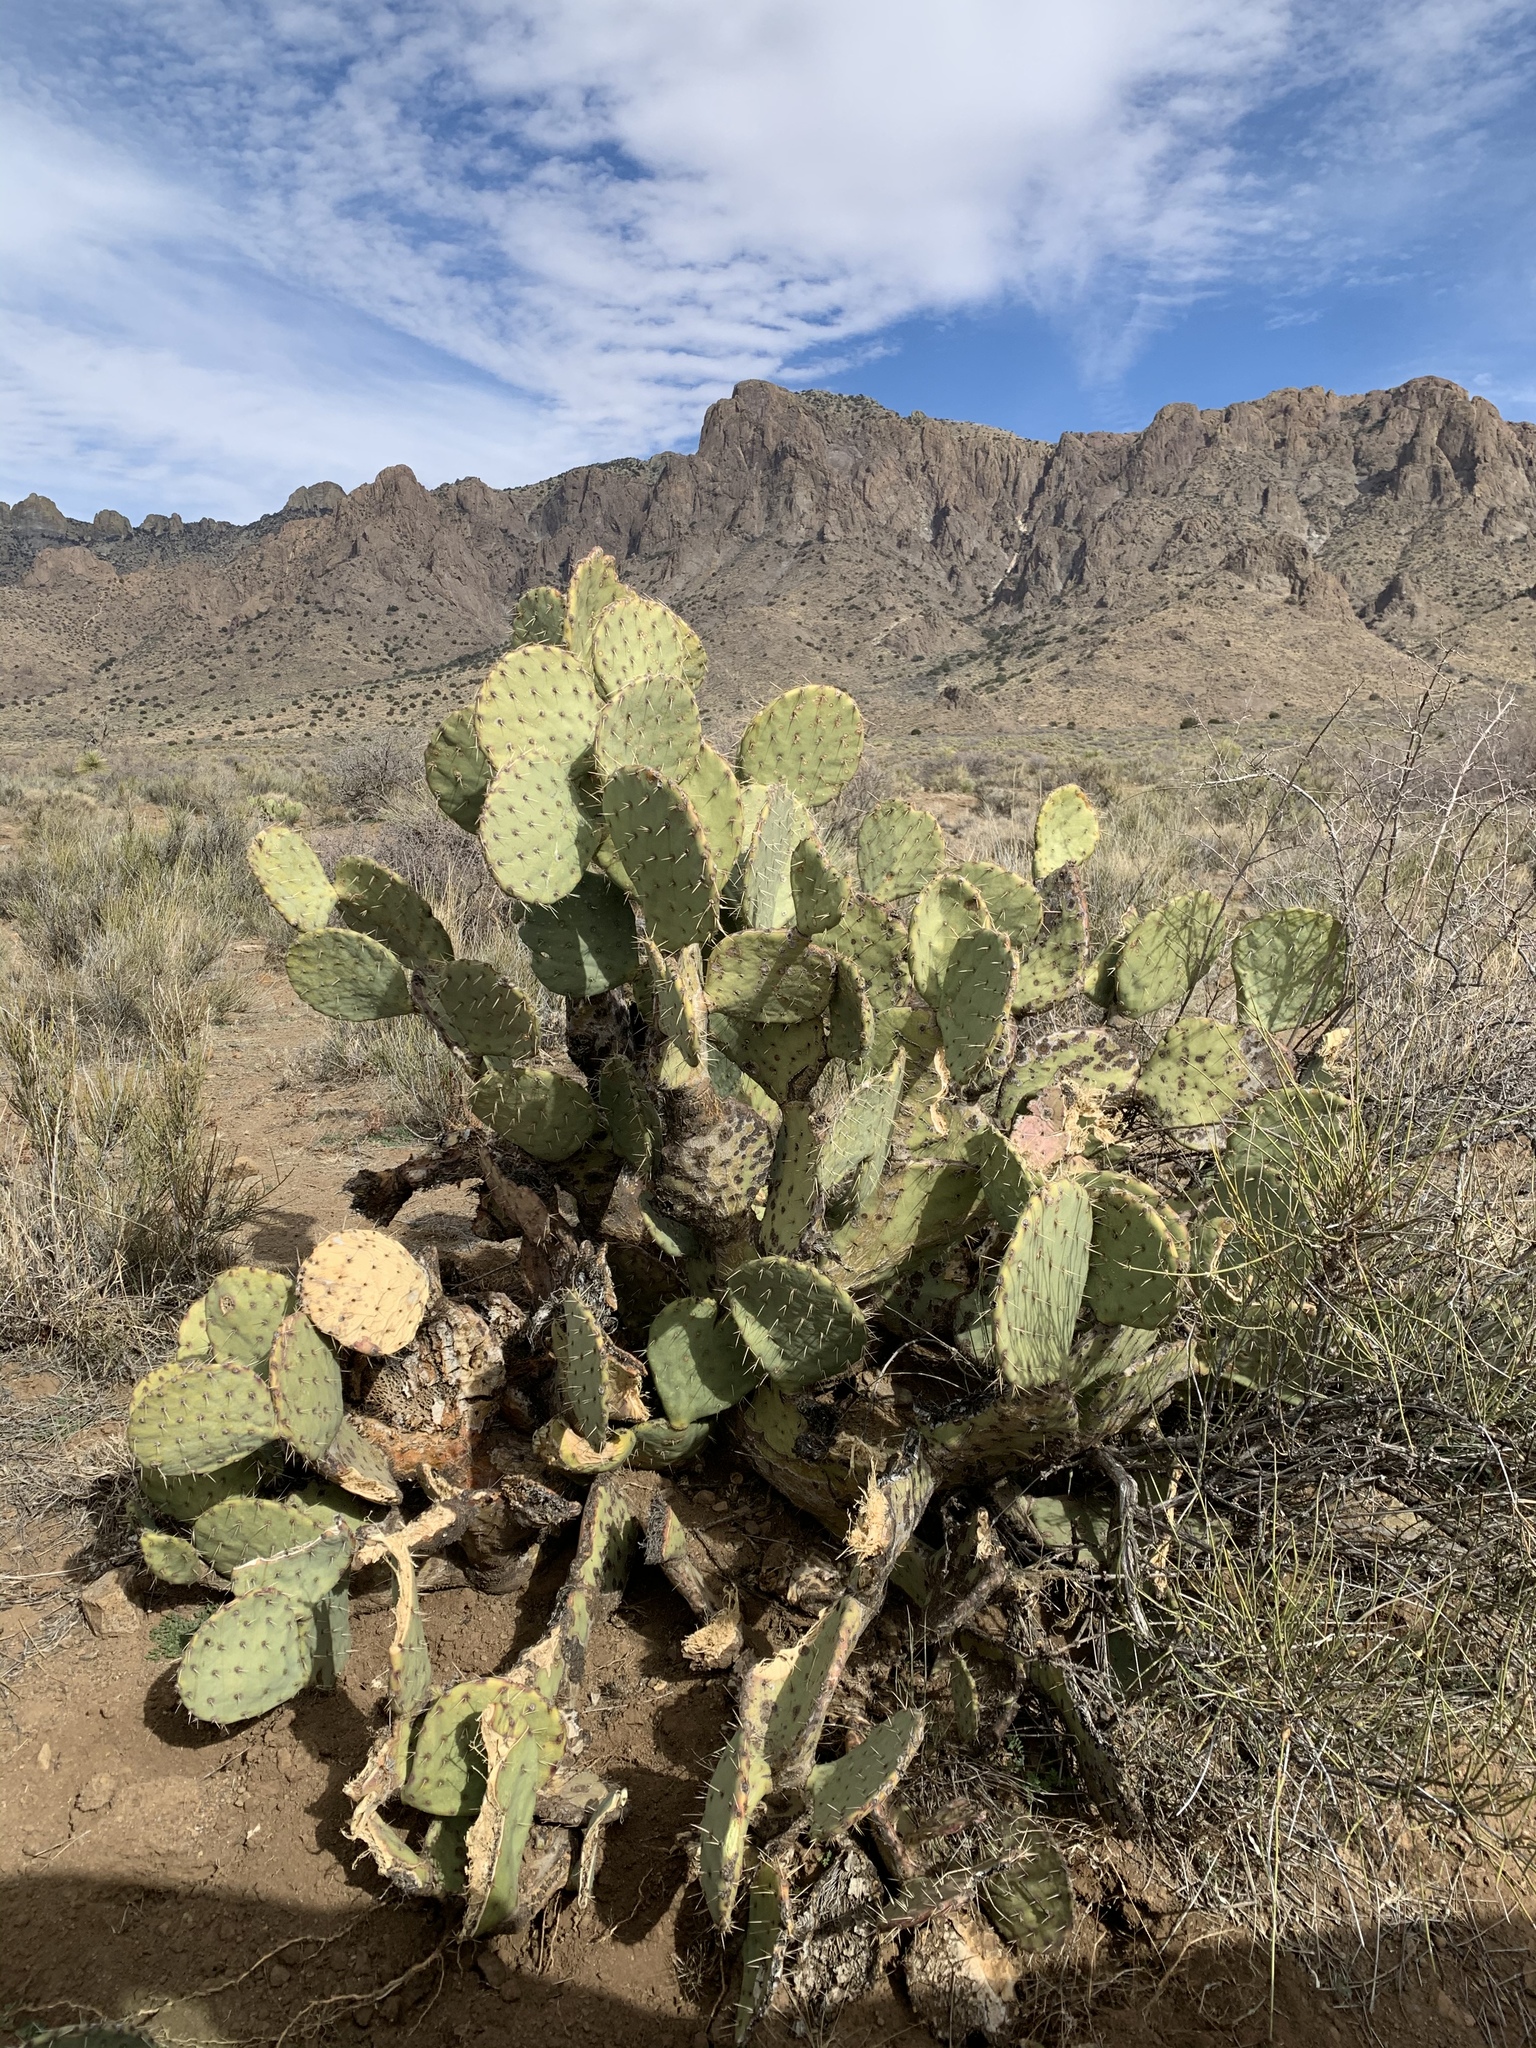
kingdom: Plantae
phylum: Tracheophyta
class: Magnoliopsida
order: Caryophyllales
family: Cactaceae
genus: Opuntia
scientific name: Opuntia engelmannii
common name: Cactus-apple
